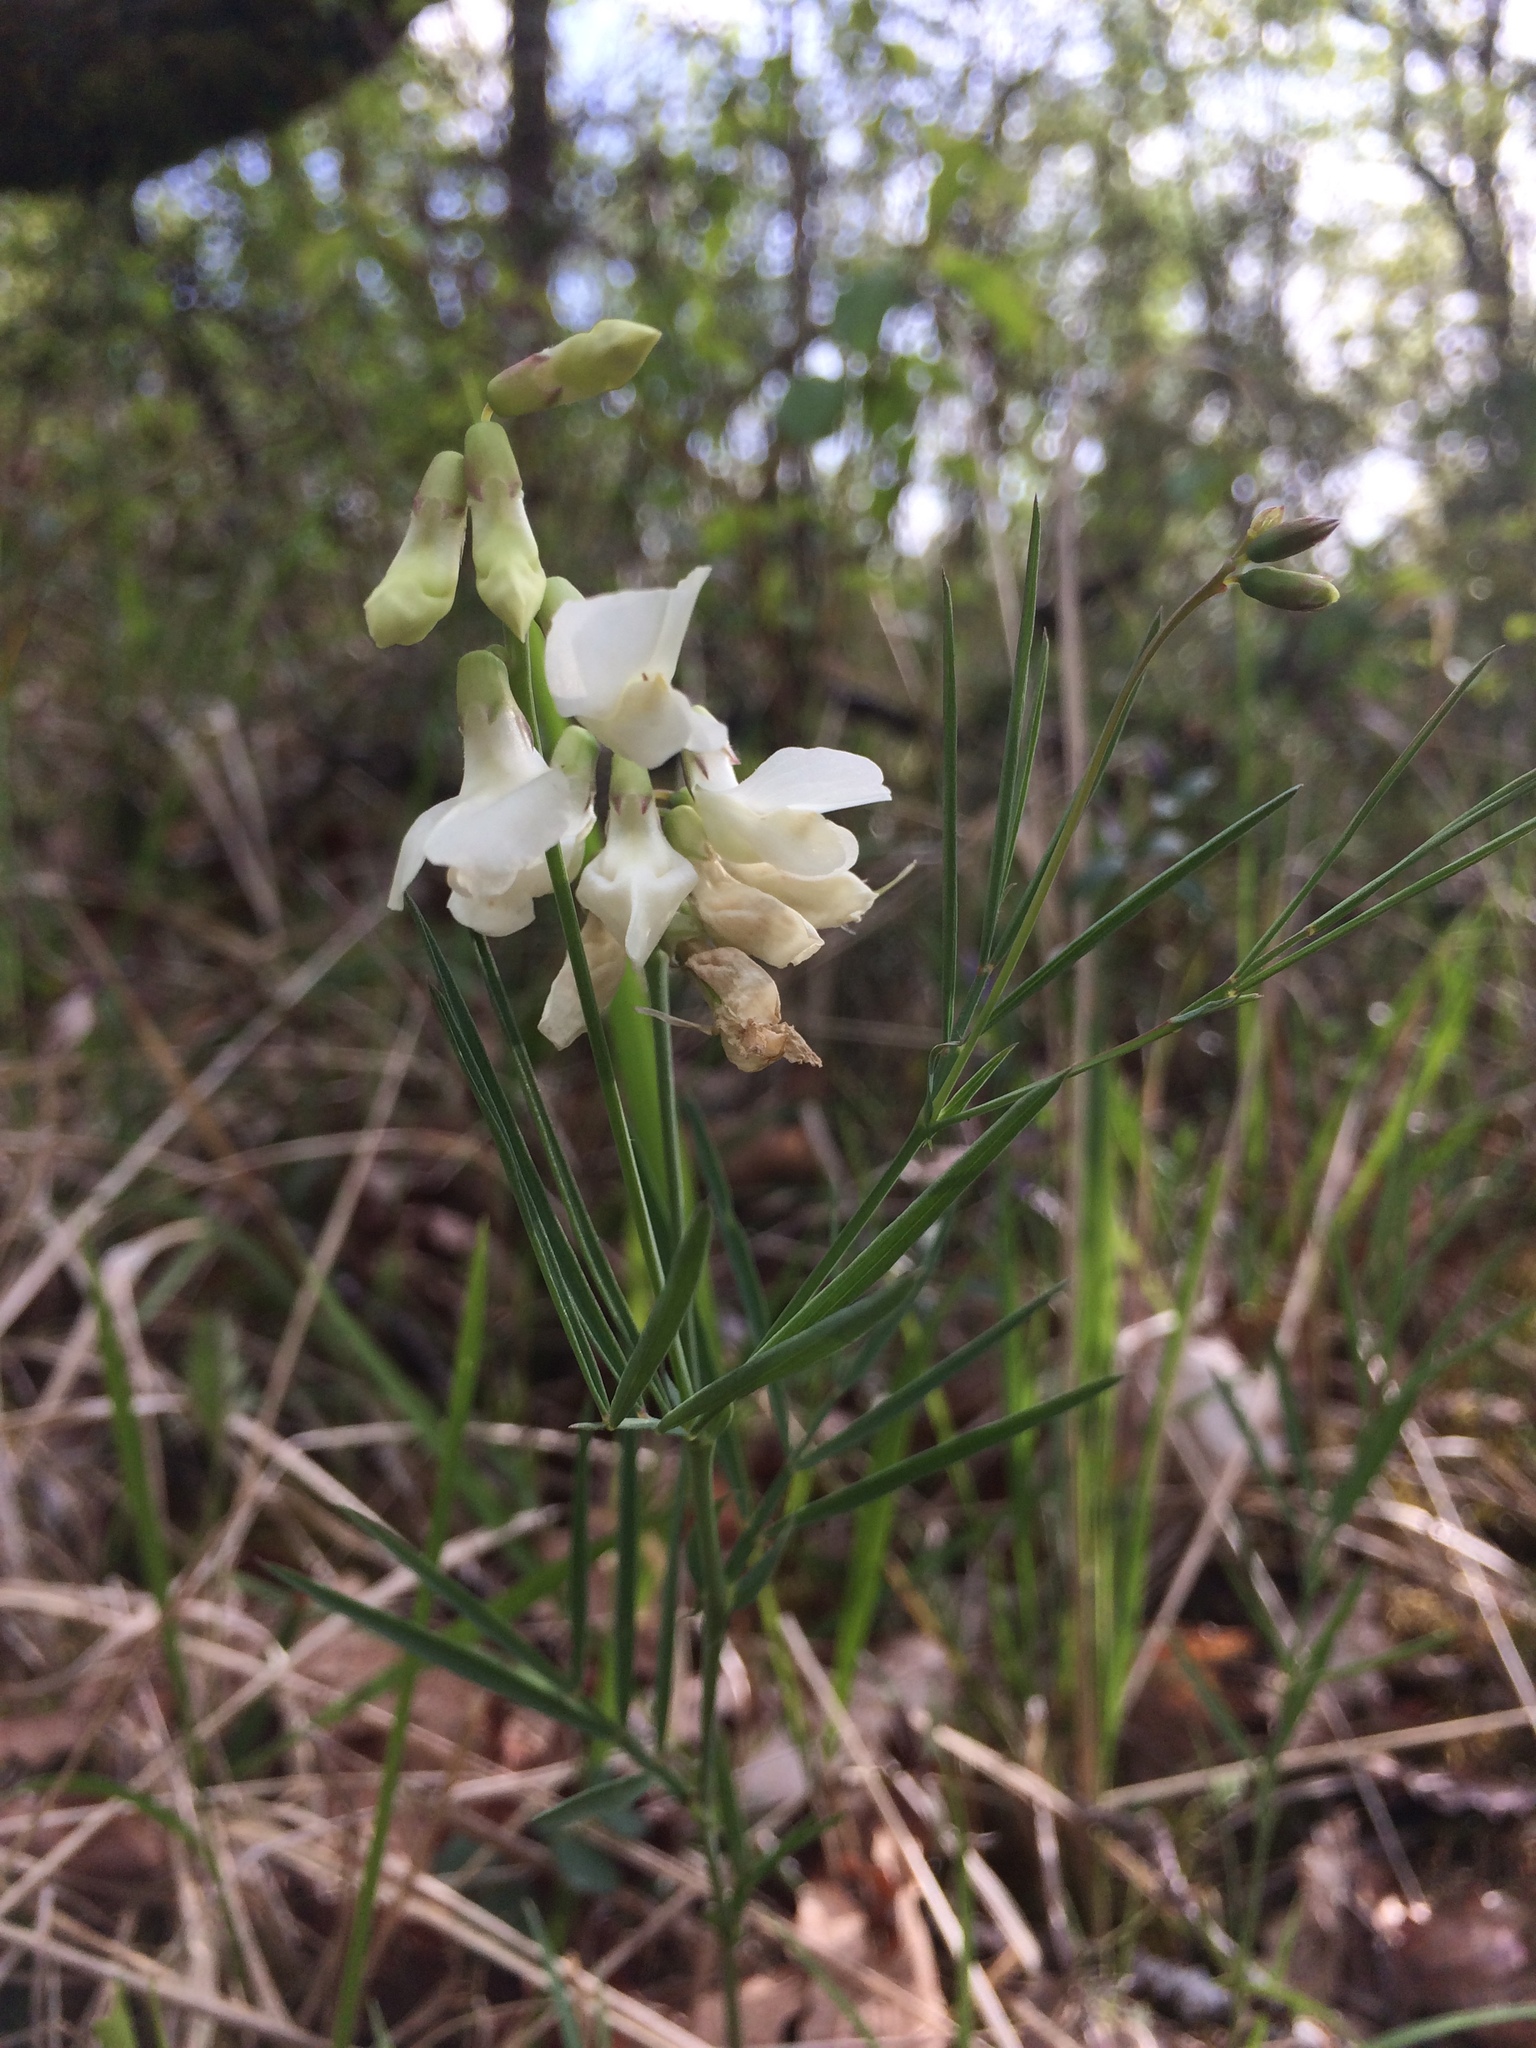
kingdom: Plantae
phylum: Tracheophyta
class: Magnoliopsida
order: Fabales
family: Fabaceae
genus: Lathyrus
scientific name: Lathyrus pannonicus
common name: Pea
